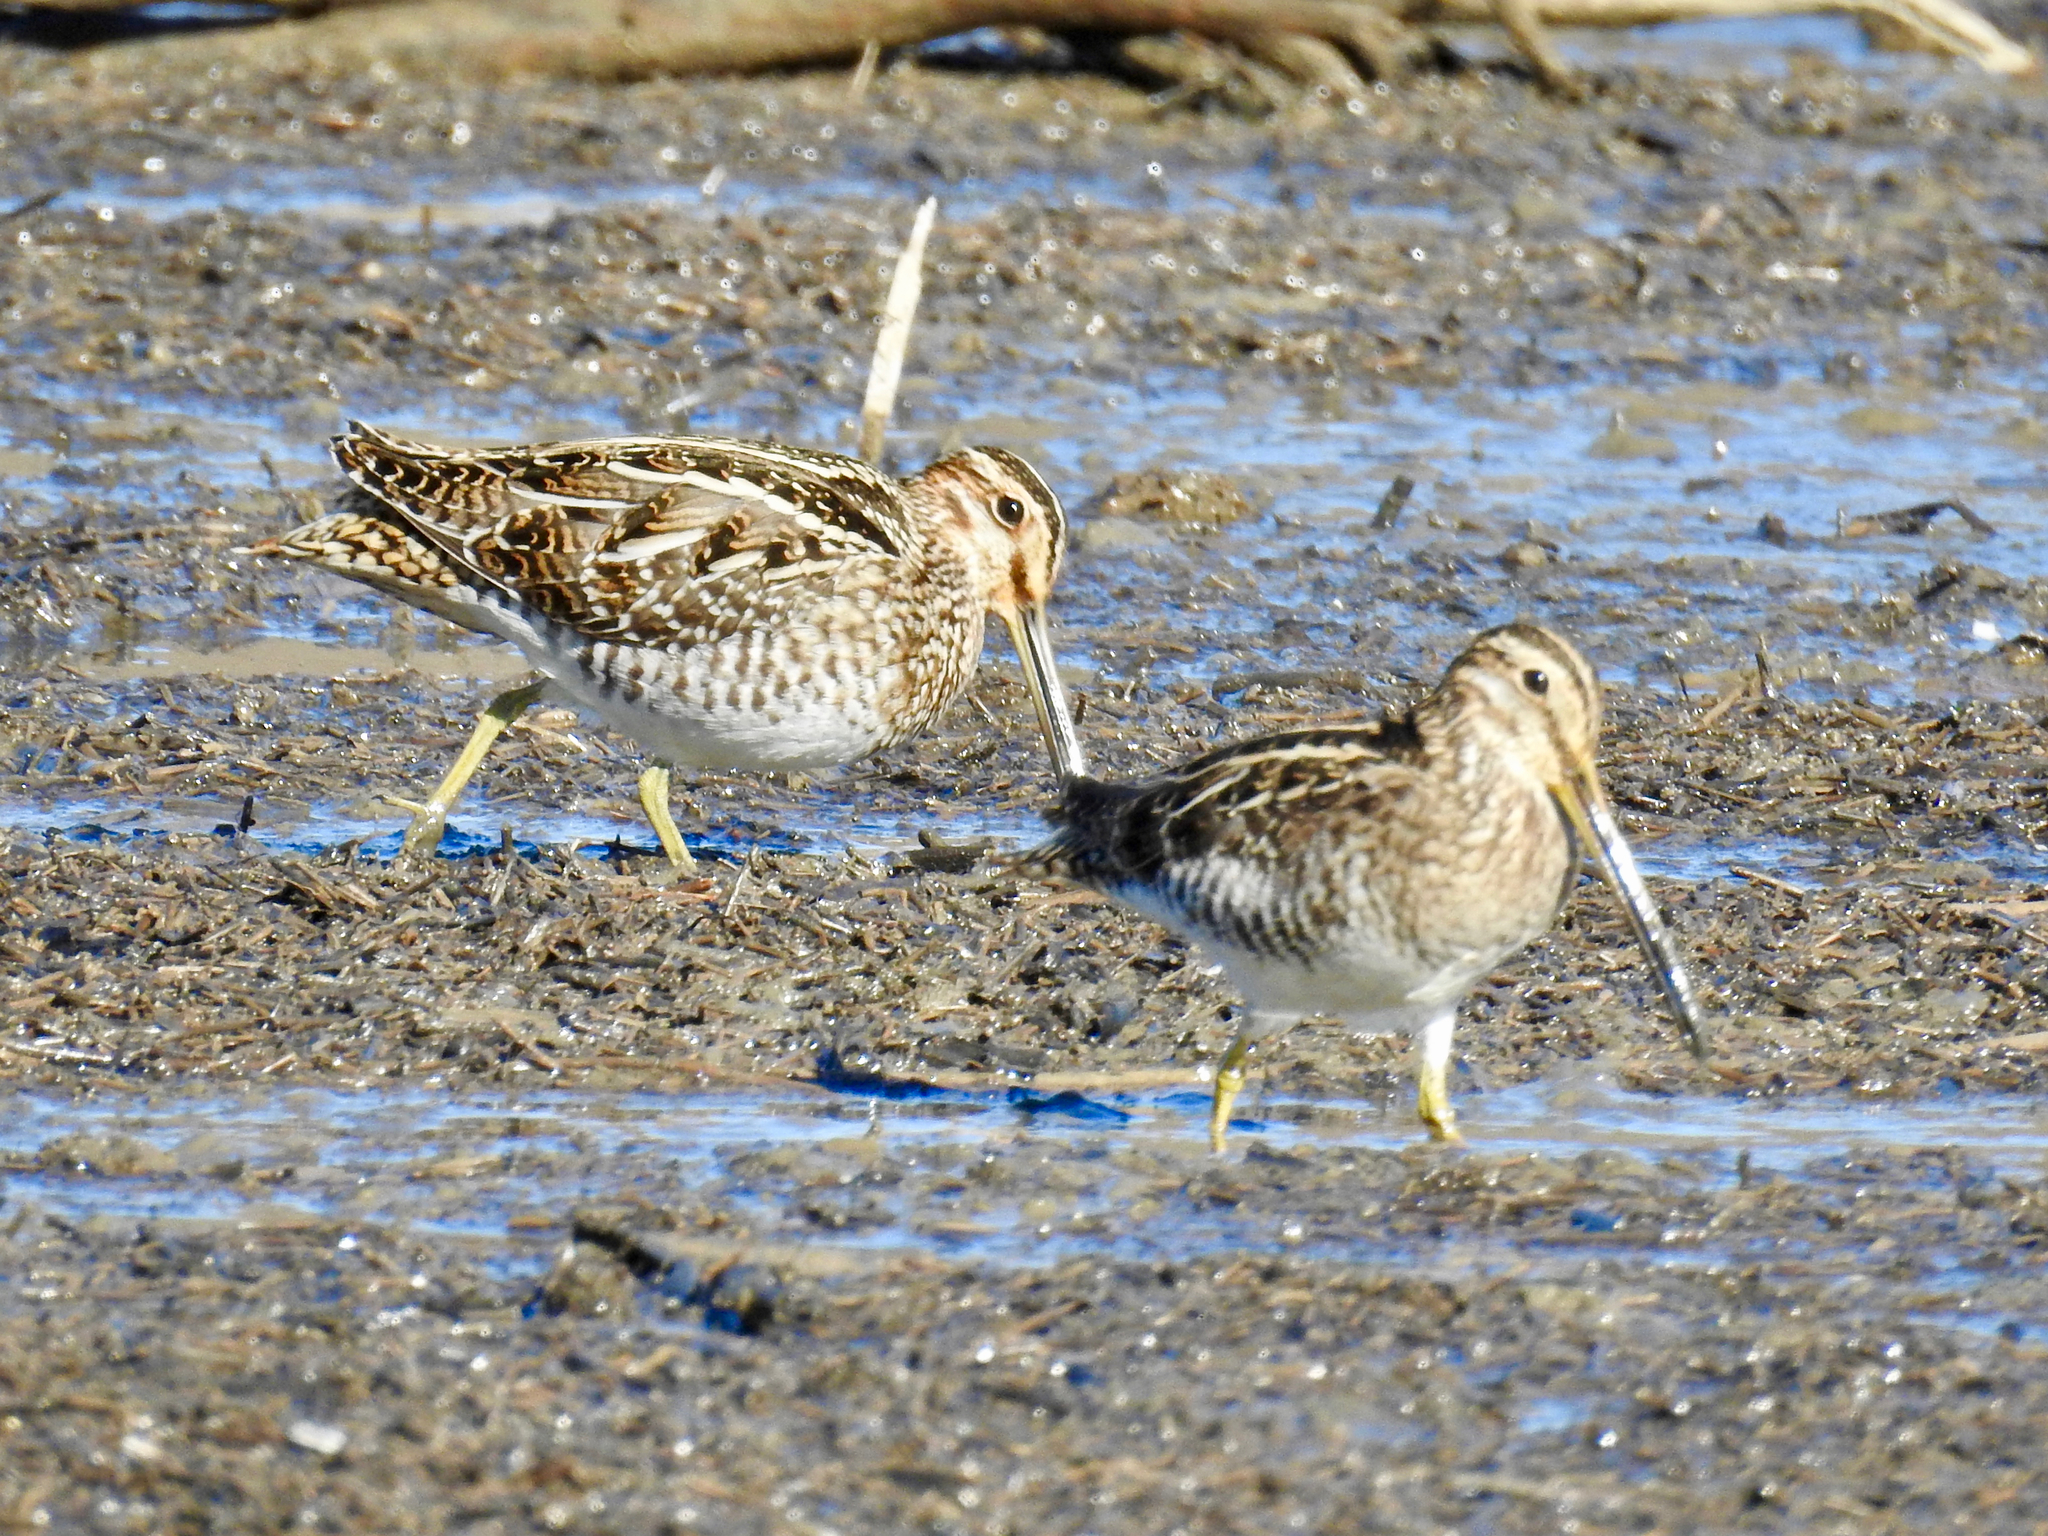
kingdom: Animalia
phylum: Chordata
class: Aves
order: Charadriiformes
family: Scolopacidae
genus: Gallinago
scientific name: Gallinago delicata
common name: Wilson's snipe
